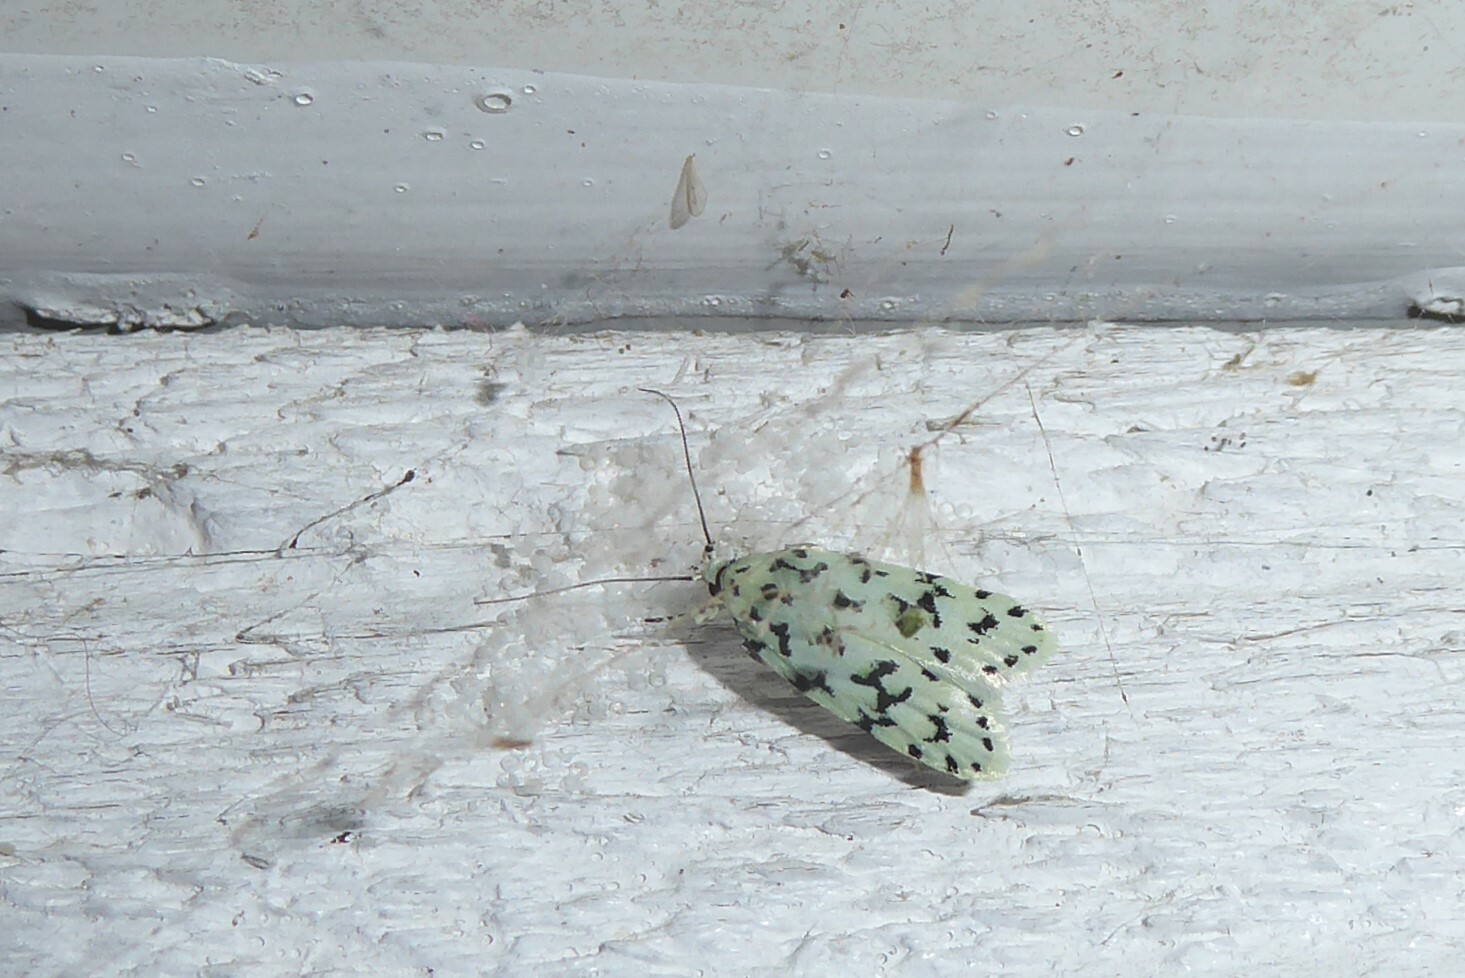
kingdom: Animalia
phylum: Arthropoda
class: Insecta
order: Lepidoptera
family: Oecophoridae
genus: Izatha
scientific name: Izatha huttoni
